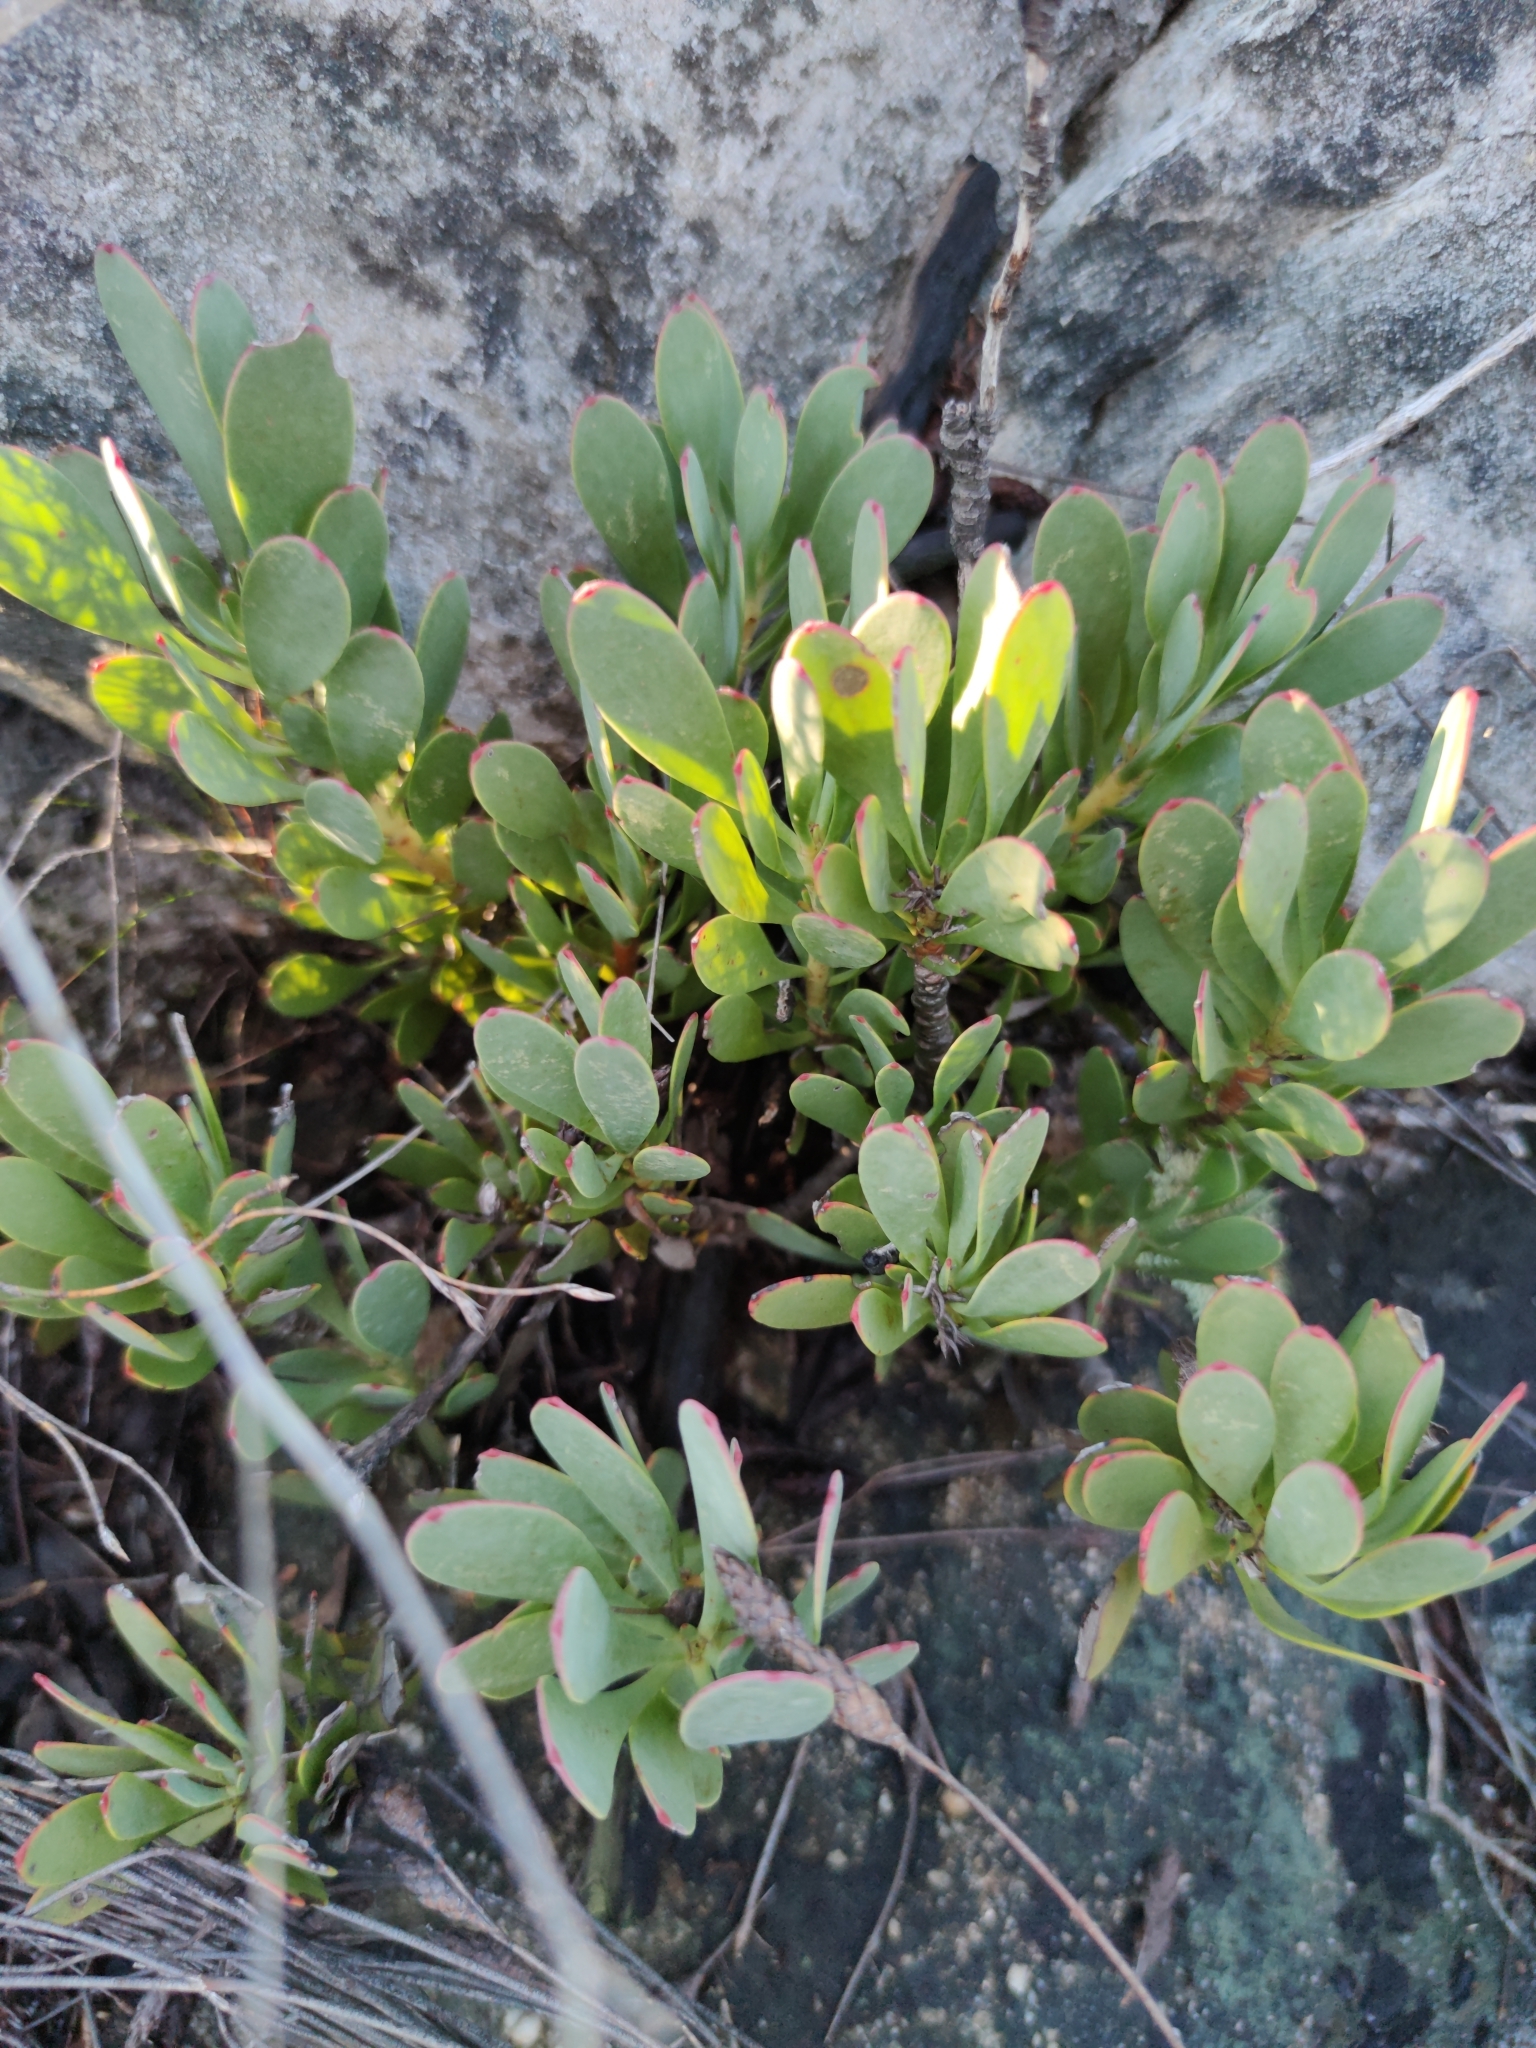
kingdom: Plantae
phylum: Tracheophyta
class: Magnoliopsida
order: Proteales
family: Proteaceae
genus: Leucadendron
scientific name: Leucadendron arcuatum
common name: Red-edge conebush
